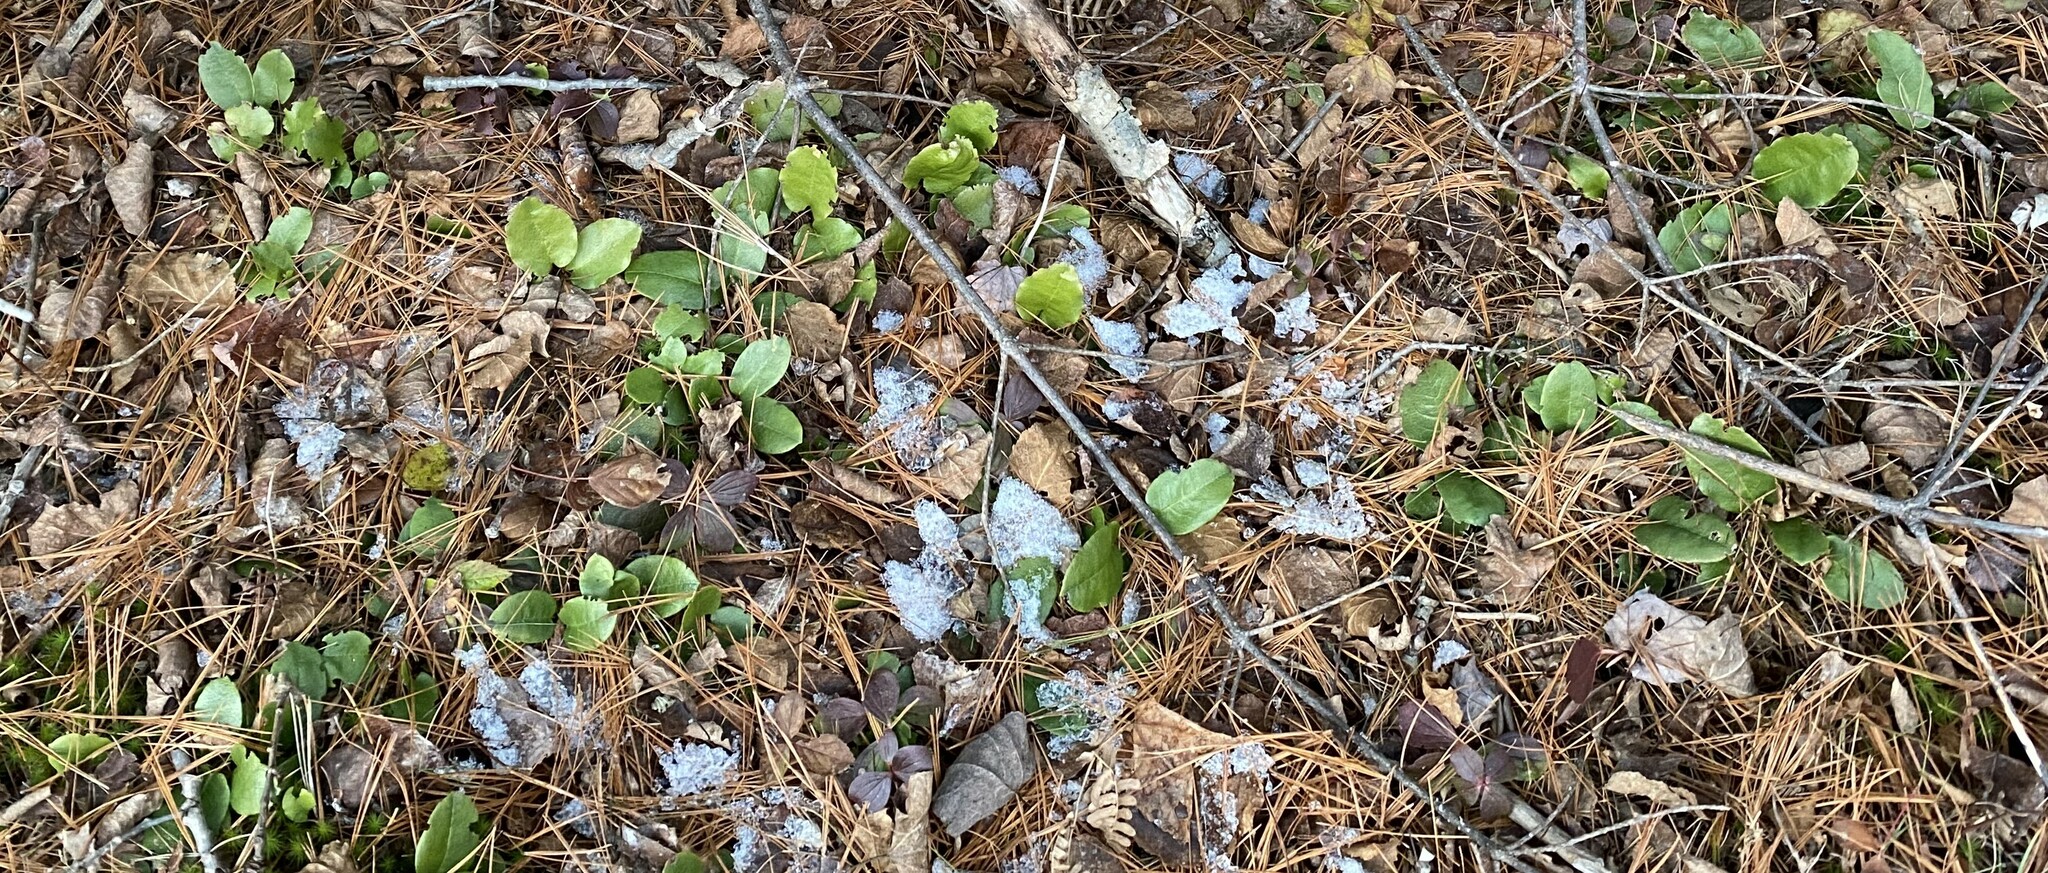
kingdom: Plantae
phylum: Tracheophyta
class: Magnoliopsida
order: Ericales
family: Ericaceae
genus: Epigaea
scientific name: Epigaea repens
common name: Gravelroot
